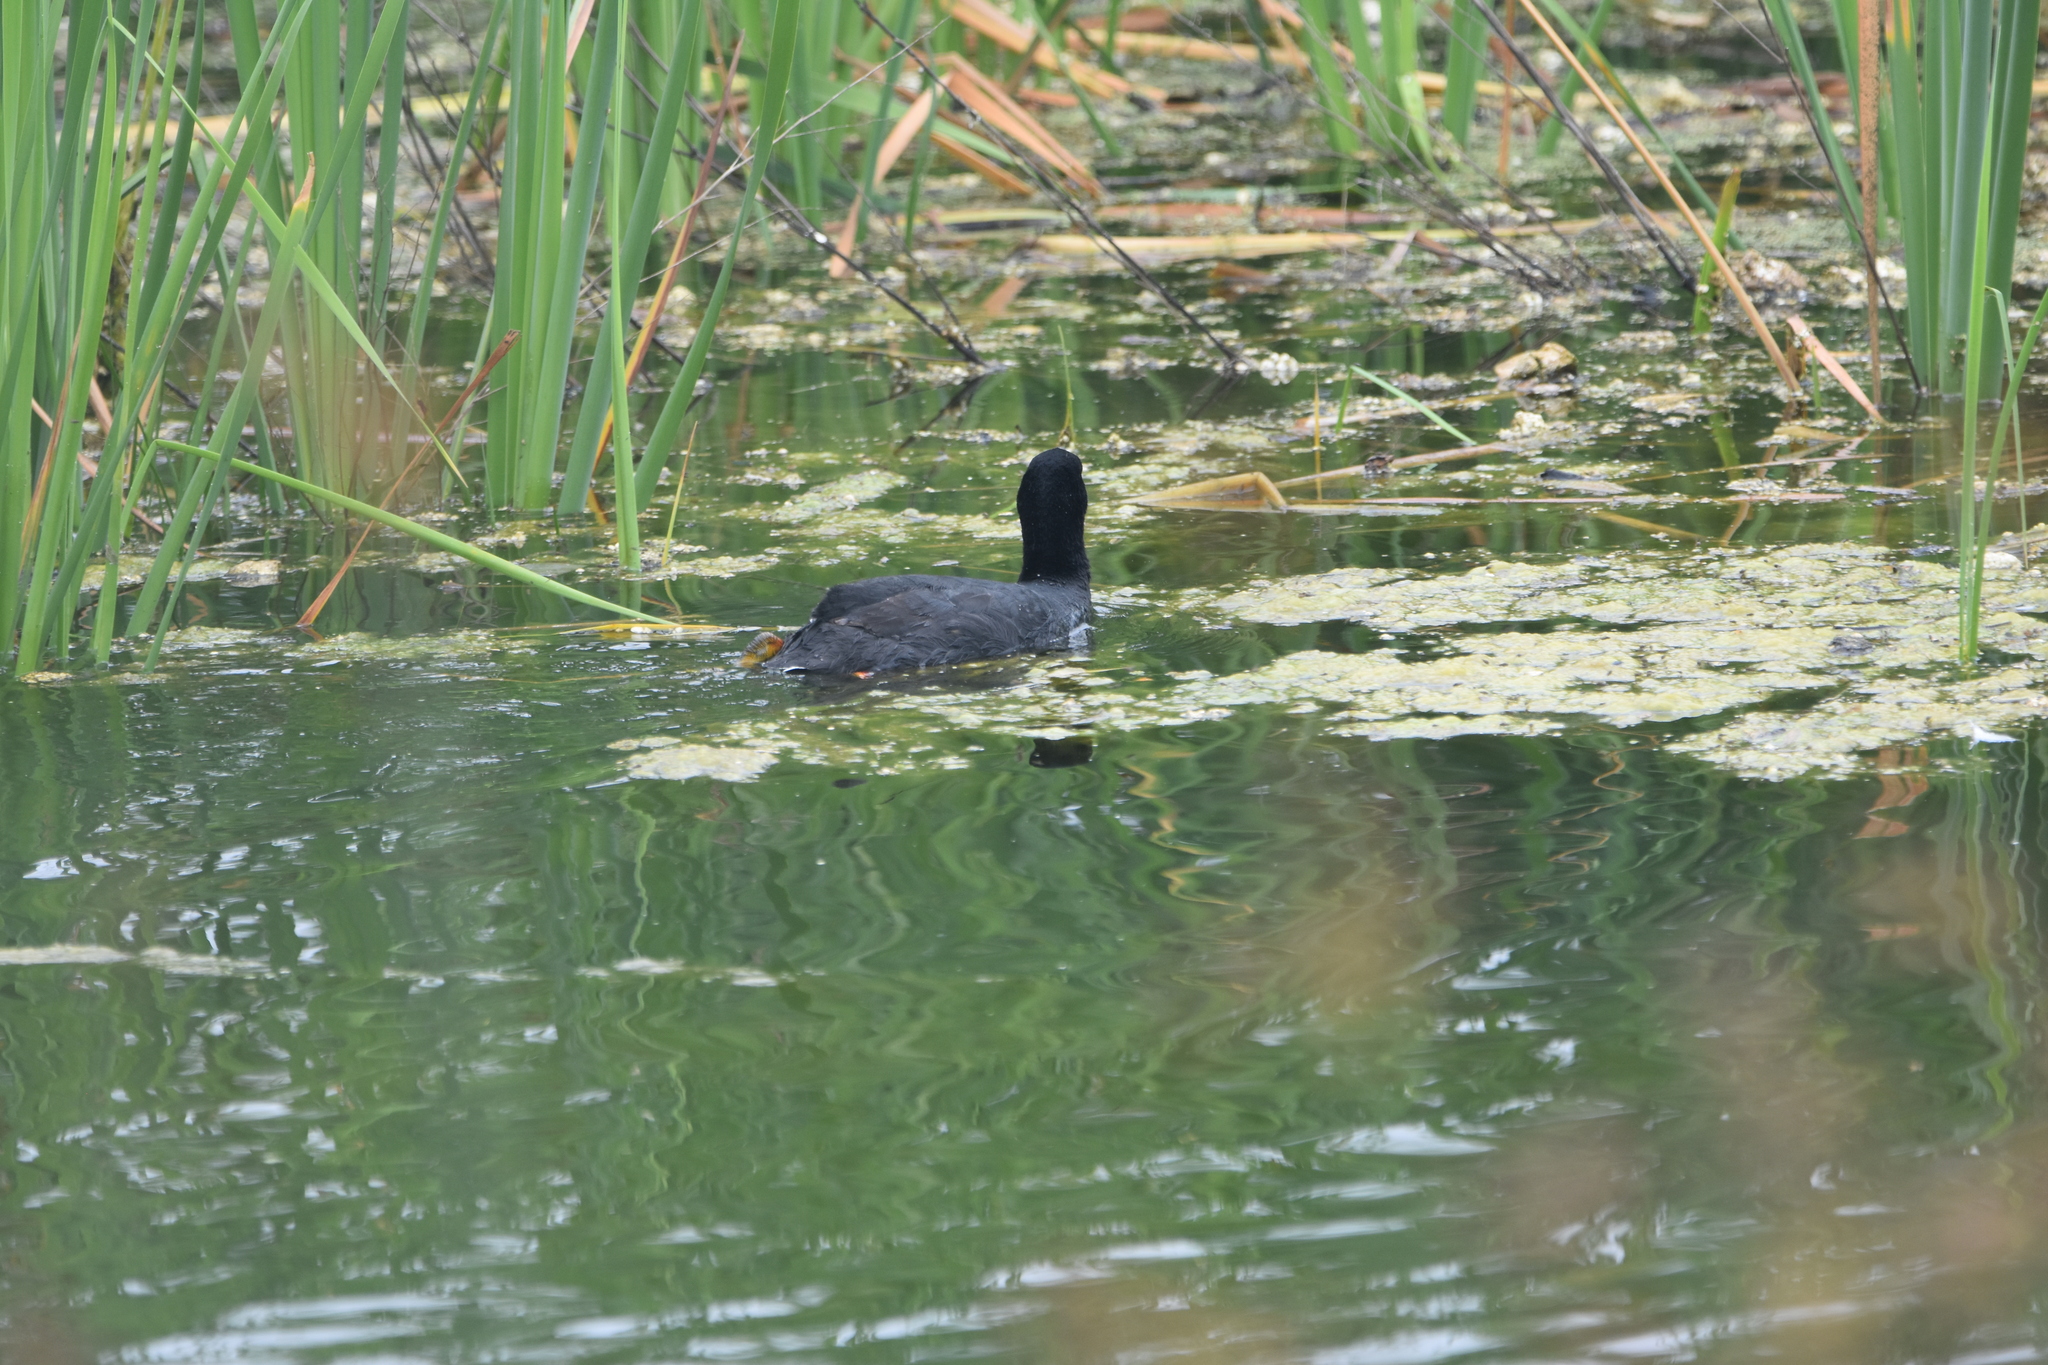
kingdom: Animalia
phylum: Chordata
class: Aves
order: Gruiformes
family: Rallidae
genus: Fulica
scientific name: Fulica armillata
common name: Red-gartered coot
